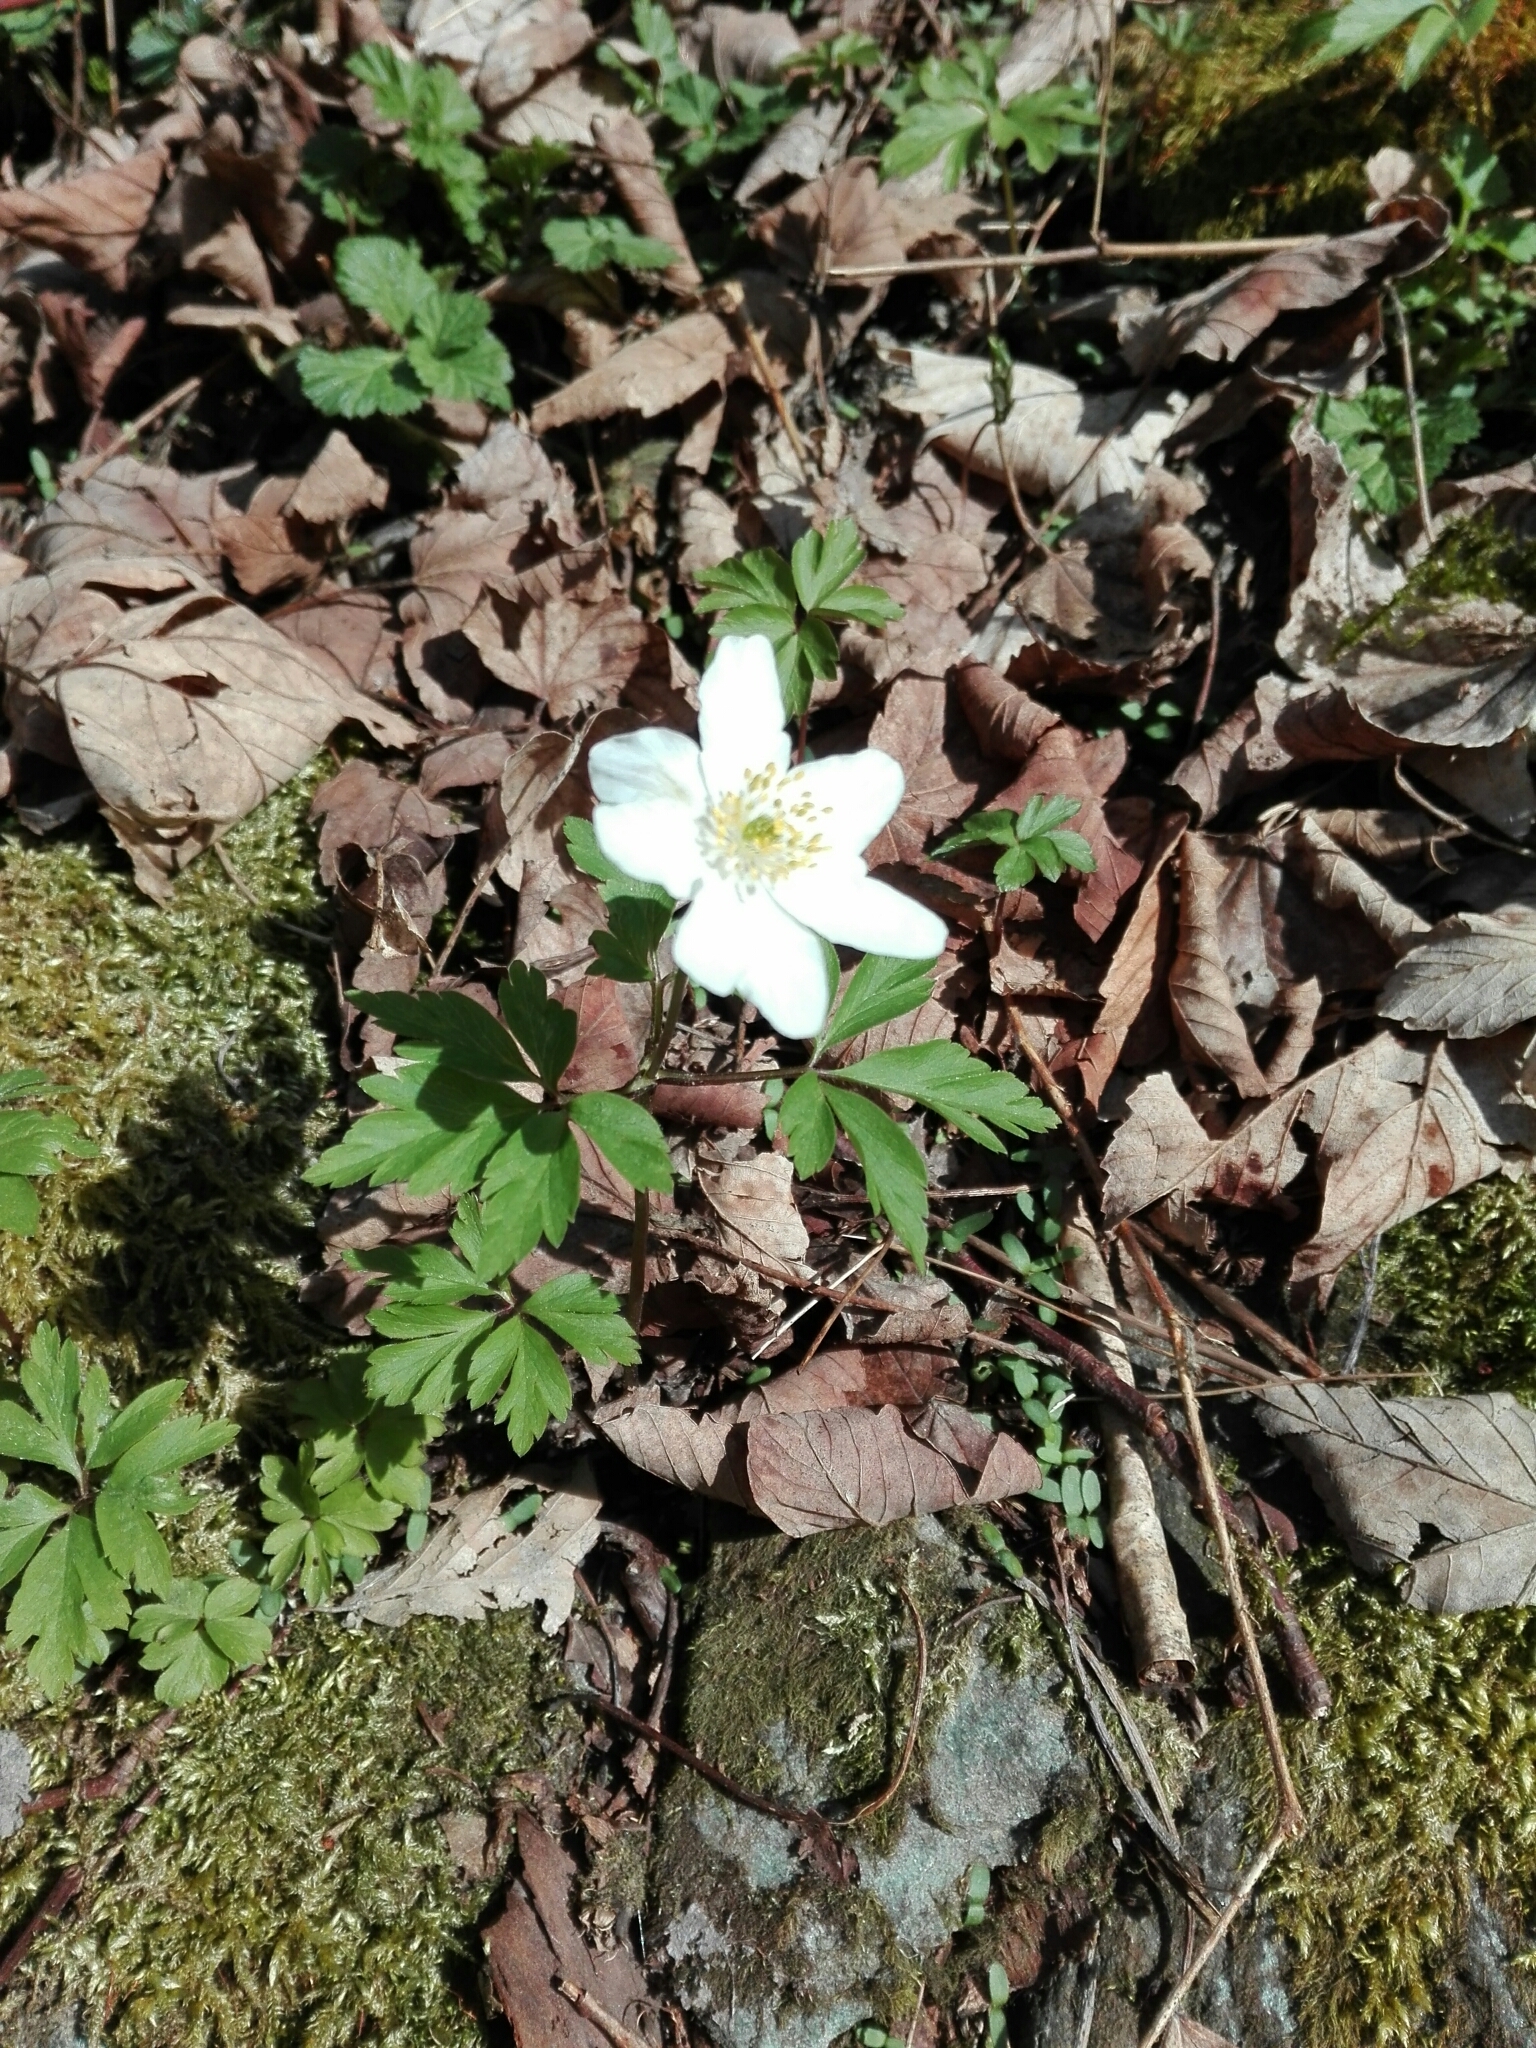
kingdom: Plantae
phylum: Tracheophyta
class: Magnoliopsida
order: Ranunculales
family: Ranunculaceae
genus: Anemone
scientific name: Anemone nemorosa
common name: Wood anemone
